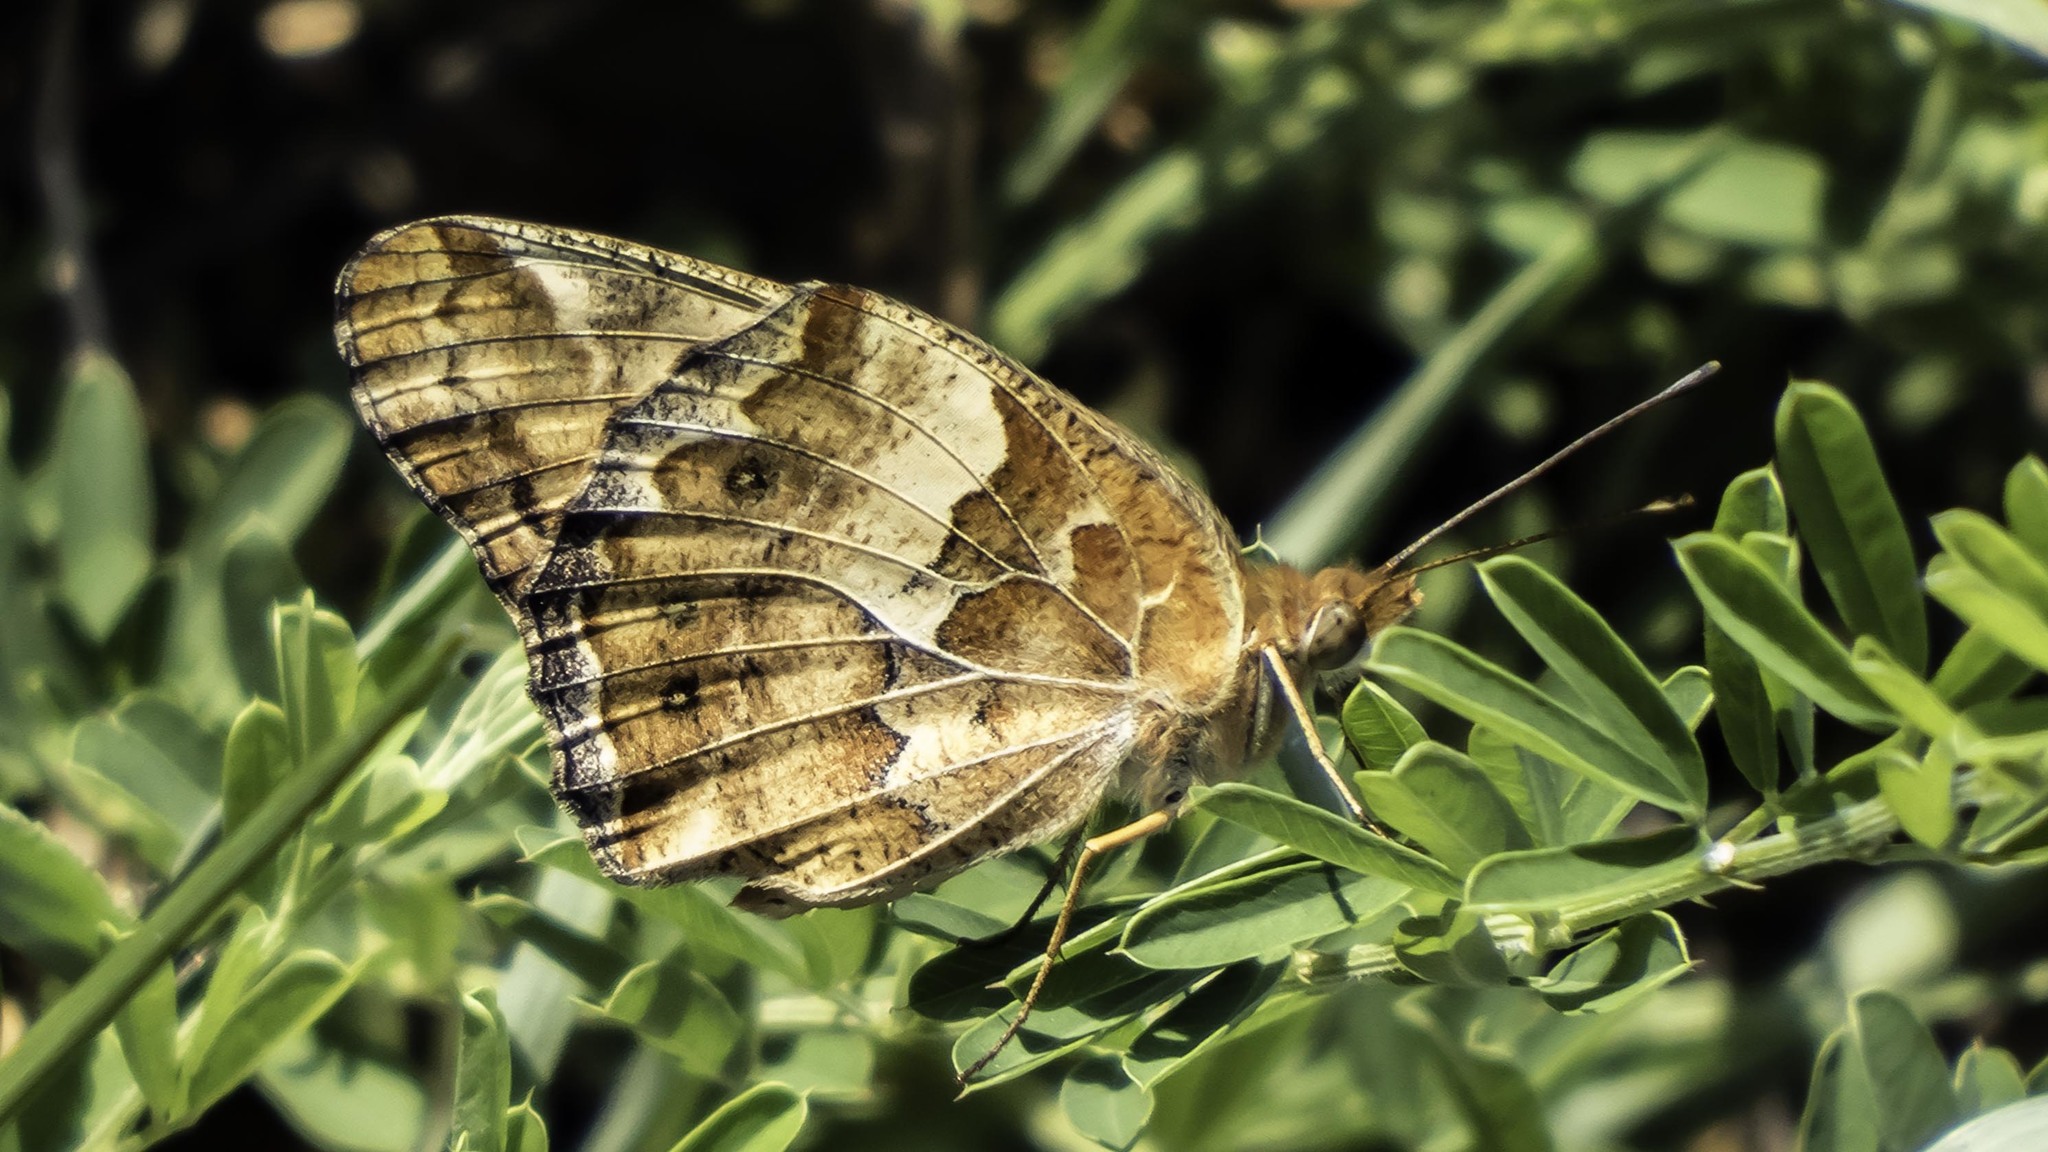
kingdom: Animalia
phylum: Arthropoda
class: Insecta
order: Lepidoptera
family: Nymphalidae
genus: Euptoieta
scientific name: Euptoieta claudia
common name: Variegated fritillary
